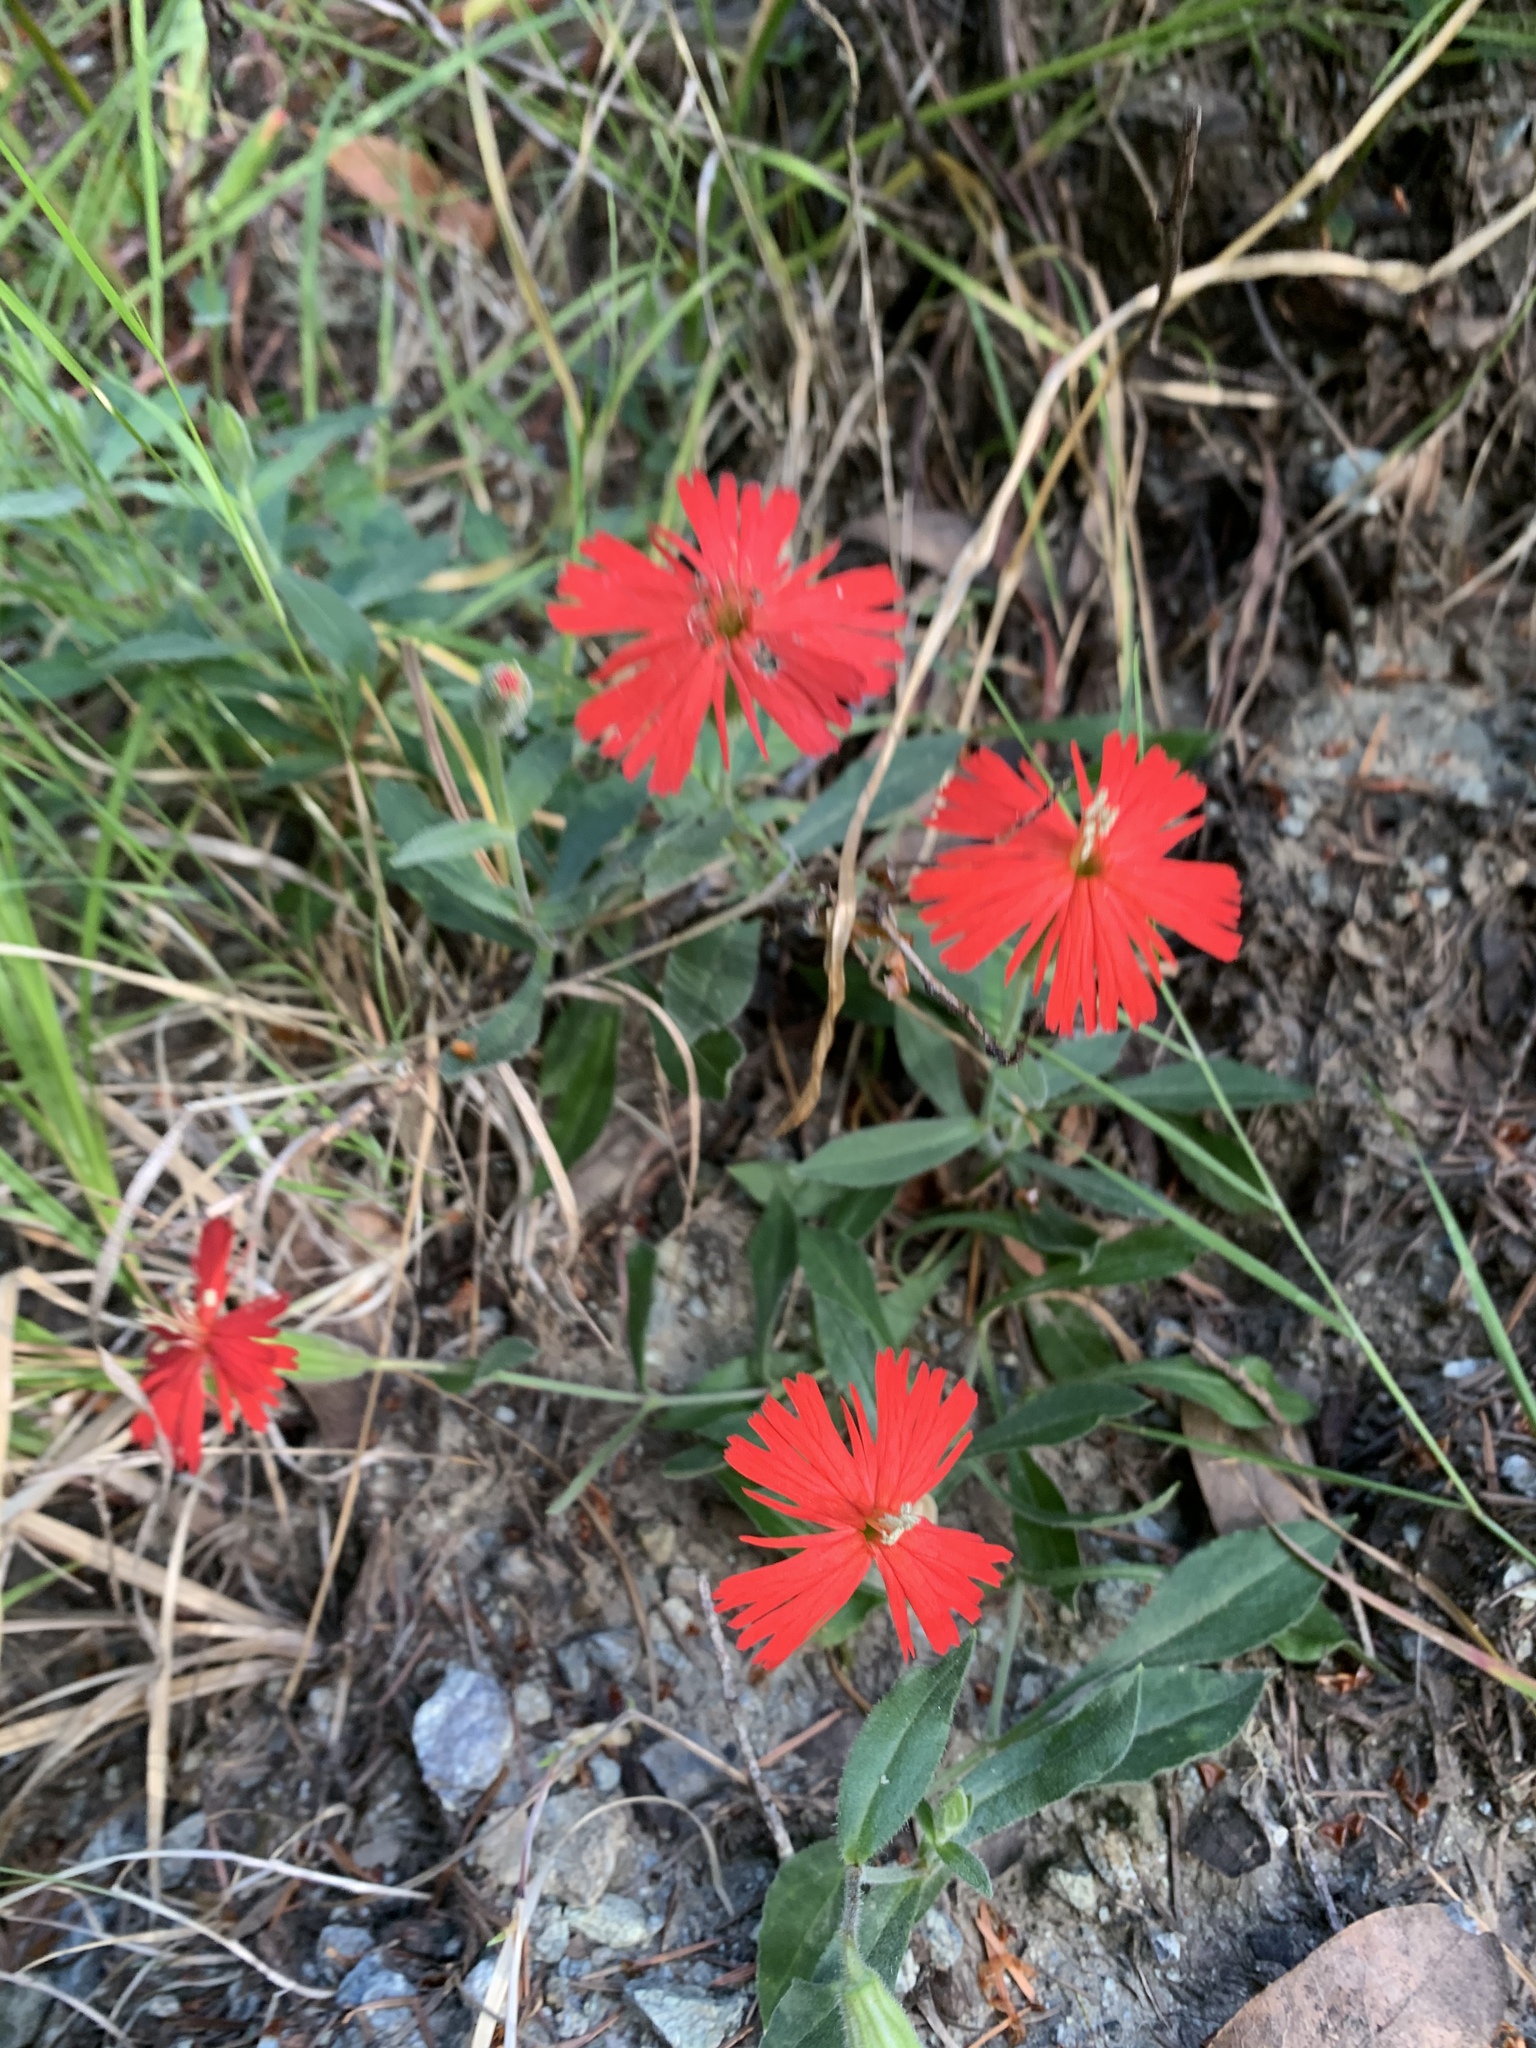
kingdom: Plantae
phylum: Tracheophyta
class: Magnoliopsida
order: Caryophyllales
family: Caryophyllaceae
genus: Silene
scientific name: Silene laciniata
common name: Indian-pink
